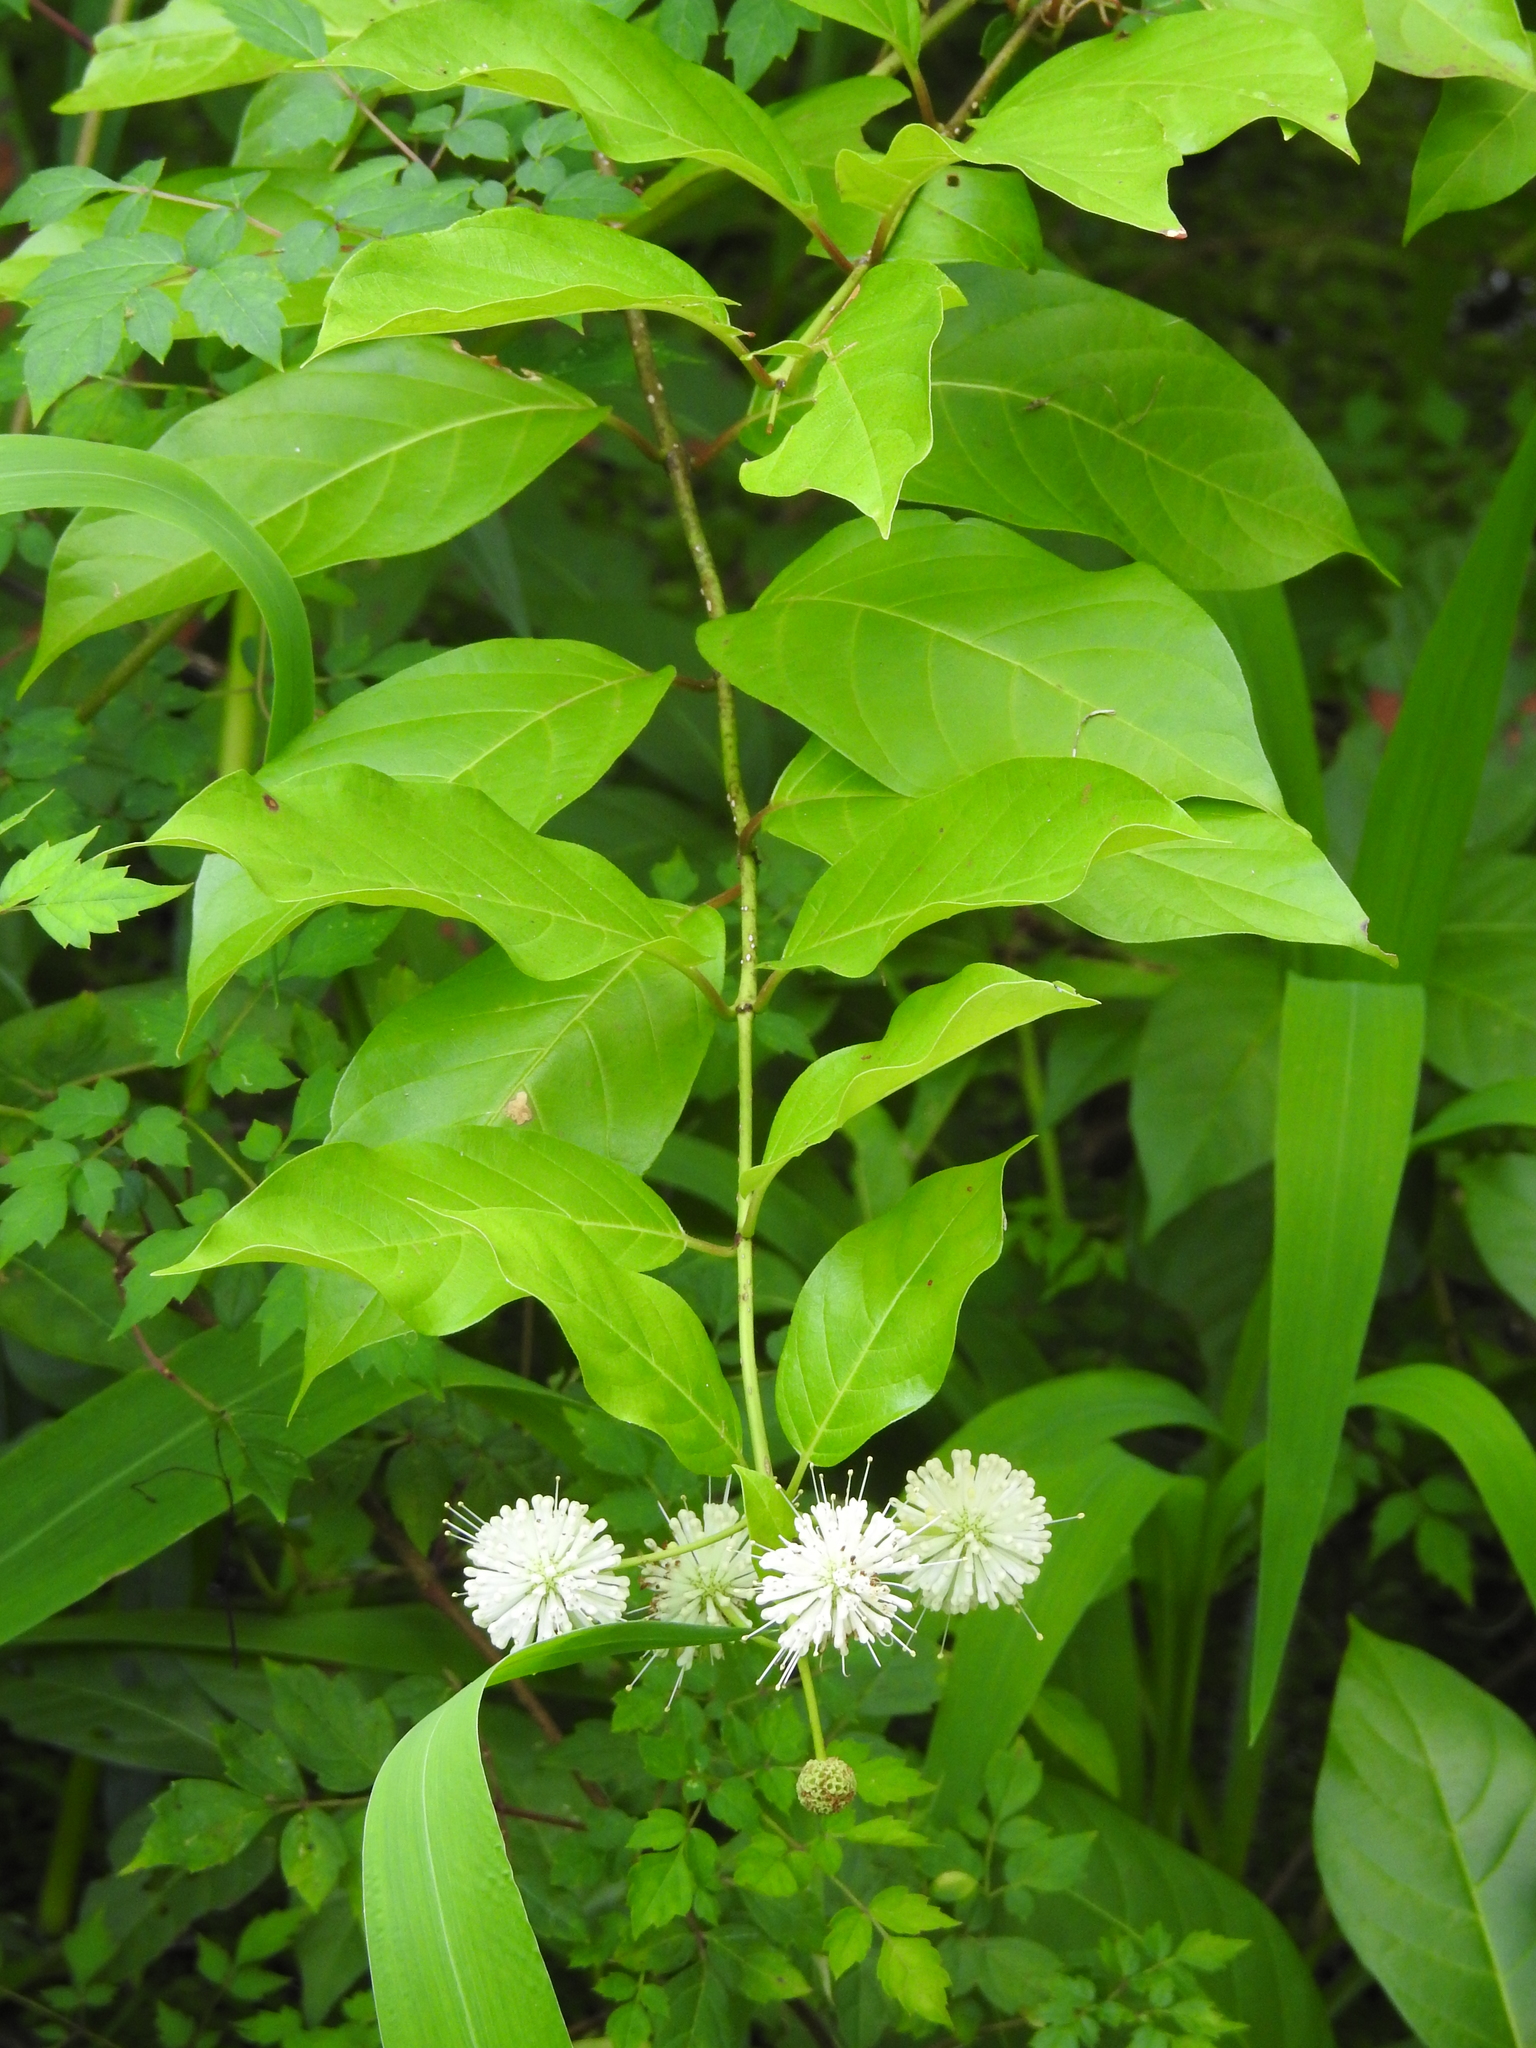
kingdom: Plantae
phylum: Tracheophyta
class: Magnoliopsida
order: Gentianales
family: Rubiaceae
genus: Cephalanthus
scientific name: Cephalanthus occidentalis
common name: Button-willow
